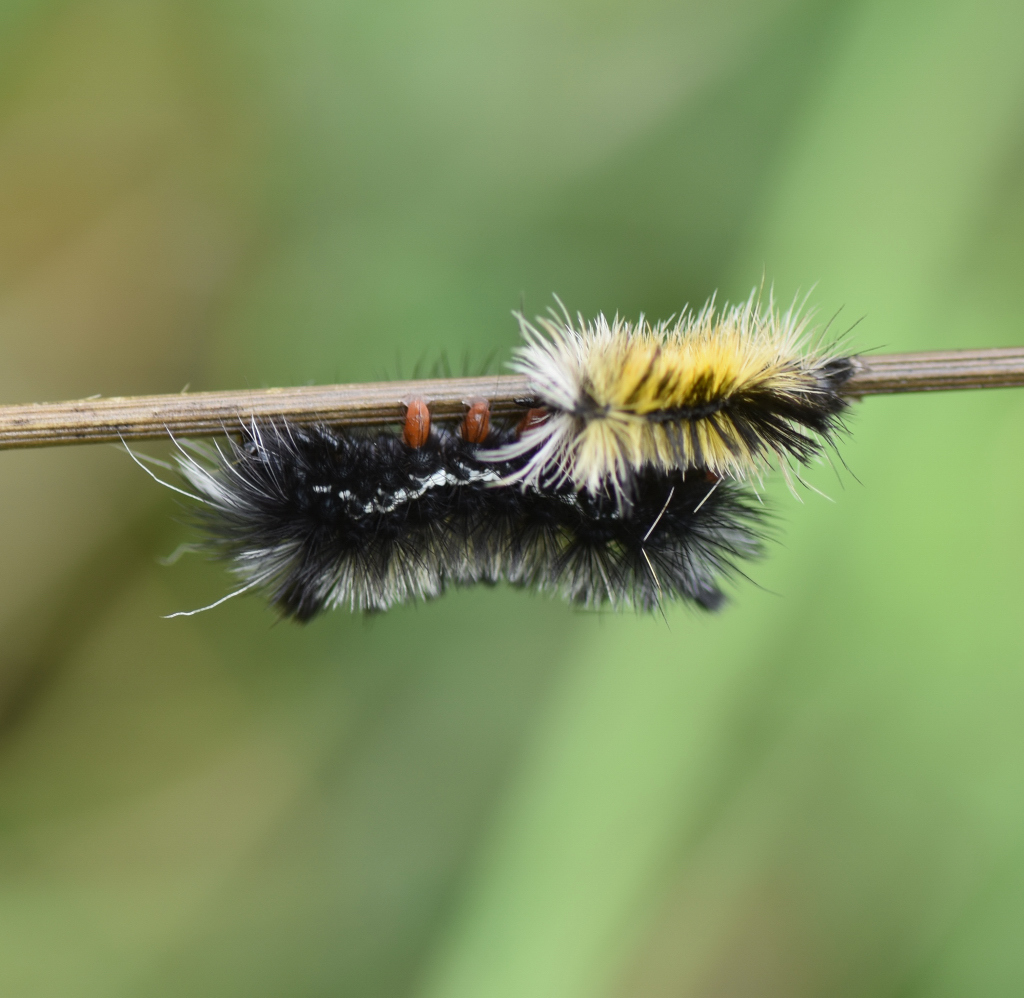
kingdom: Animalia
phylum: Arthropoda
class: Insecta
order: Lepidoptera
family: Erebidae
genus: Ctenucha
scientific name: Ctenucha virginica
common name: Virginia ctenucha moth
